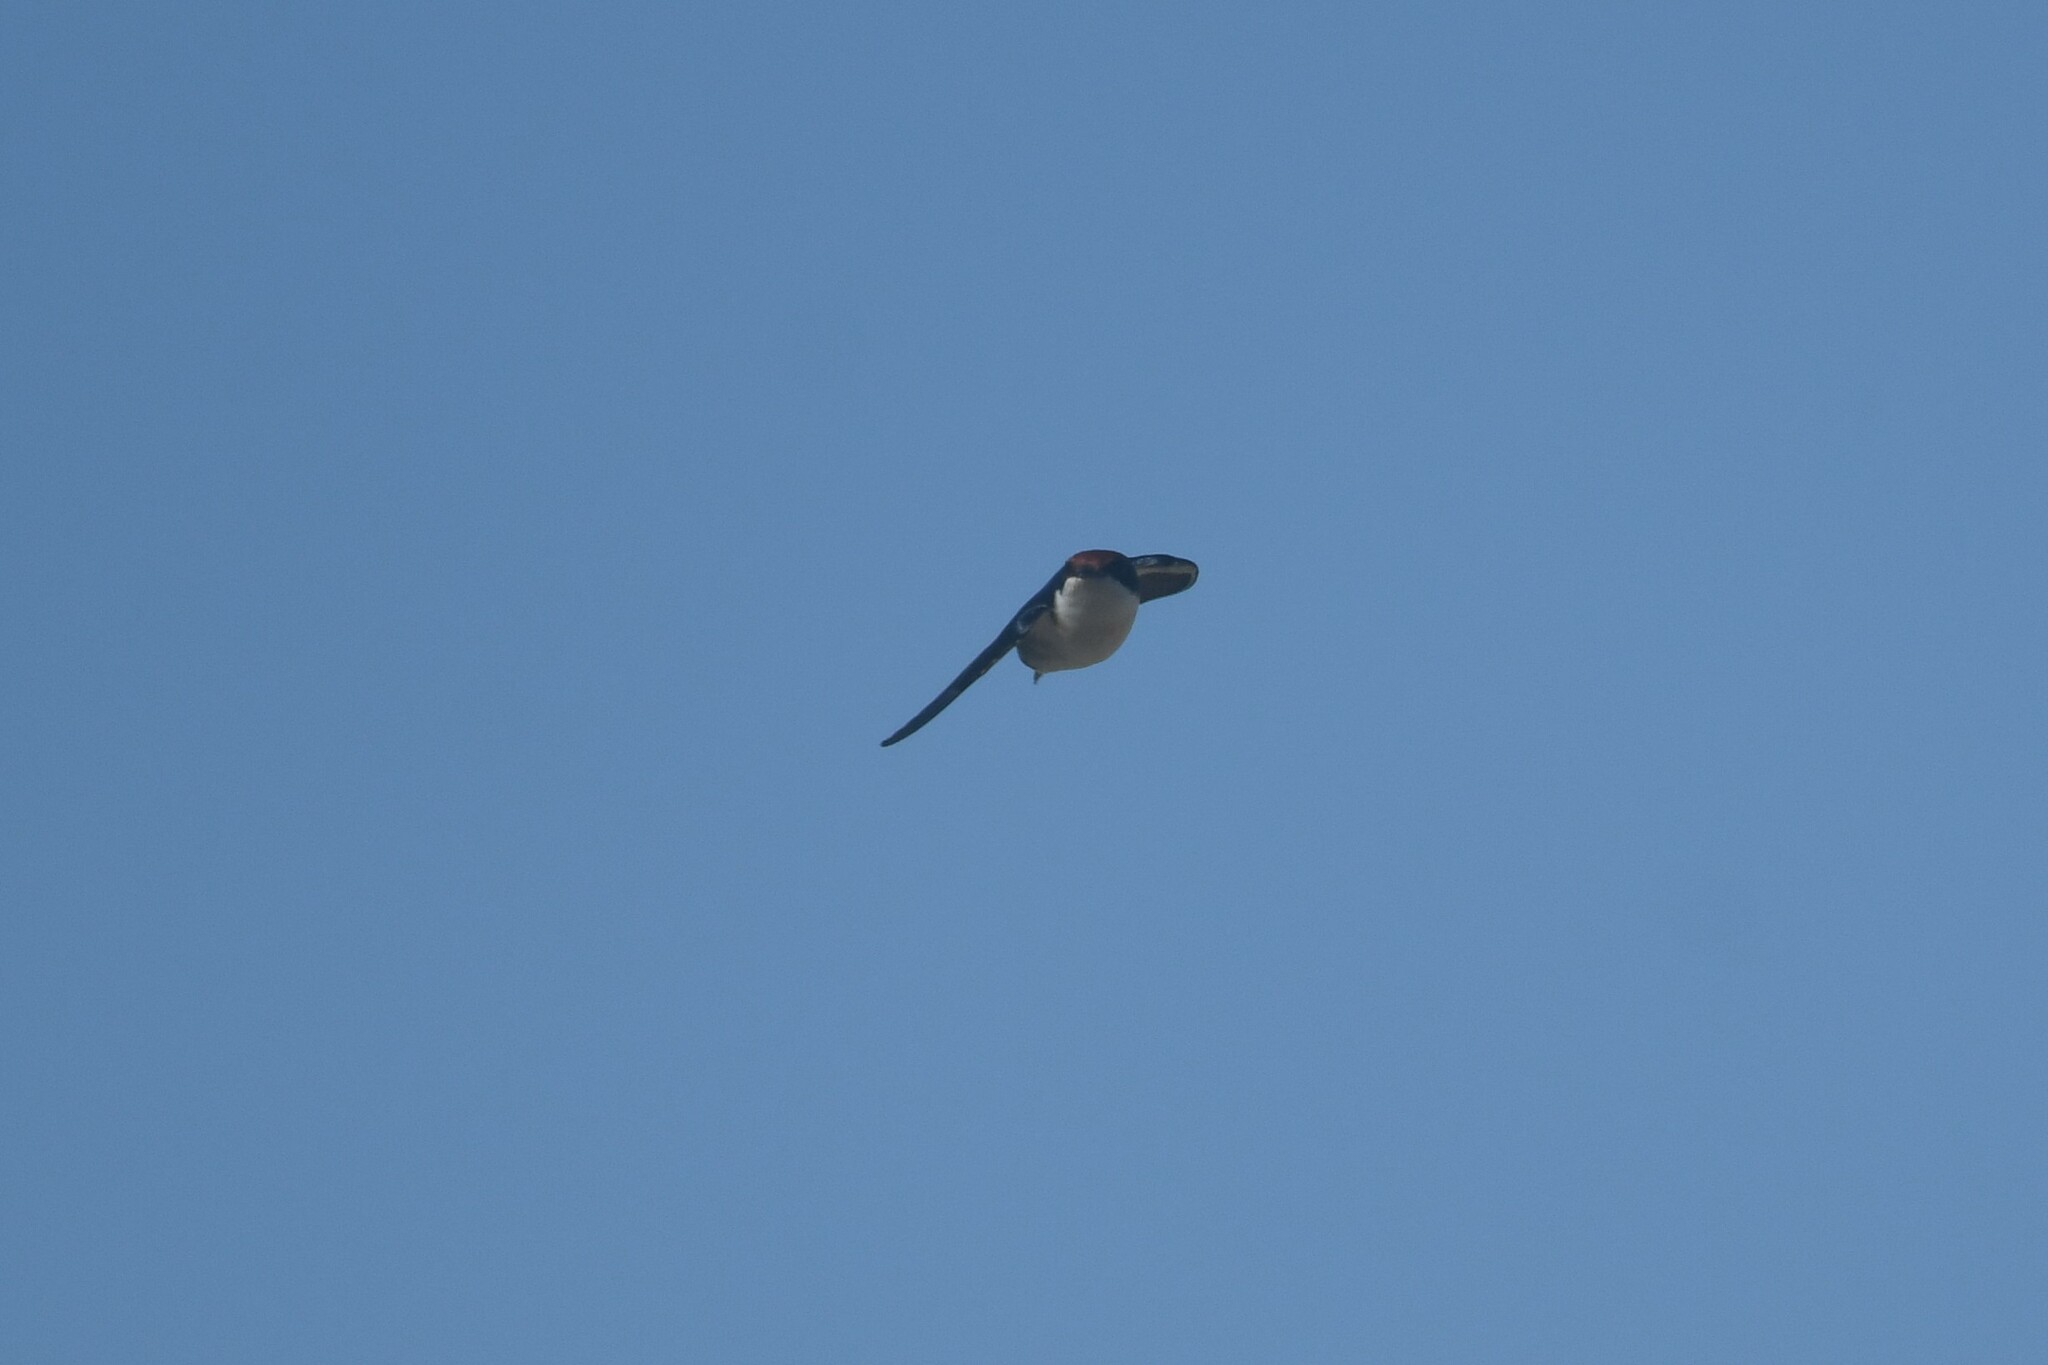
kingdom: Animalia
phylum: Chordata
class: Aves
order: Passeriformes
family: Hirundinidae
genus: Hirundo
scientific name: Hirundo smithii
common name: Wire-tailed swallow
